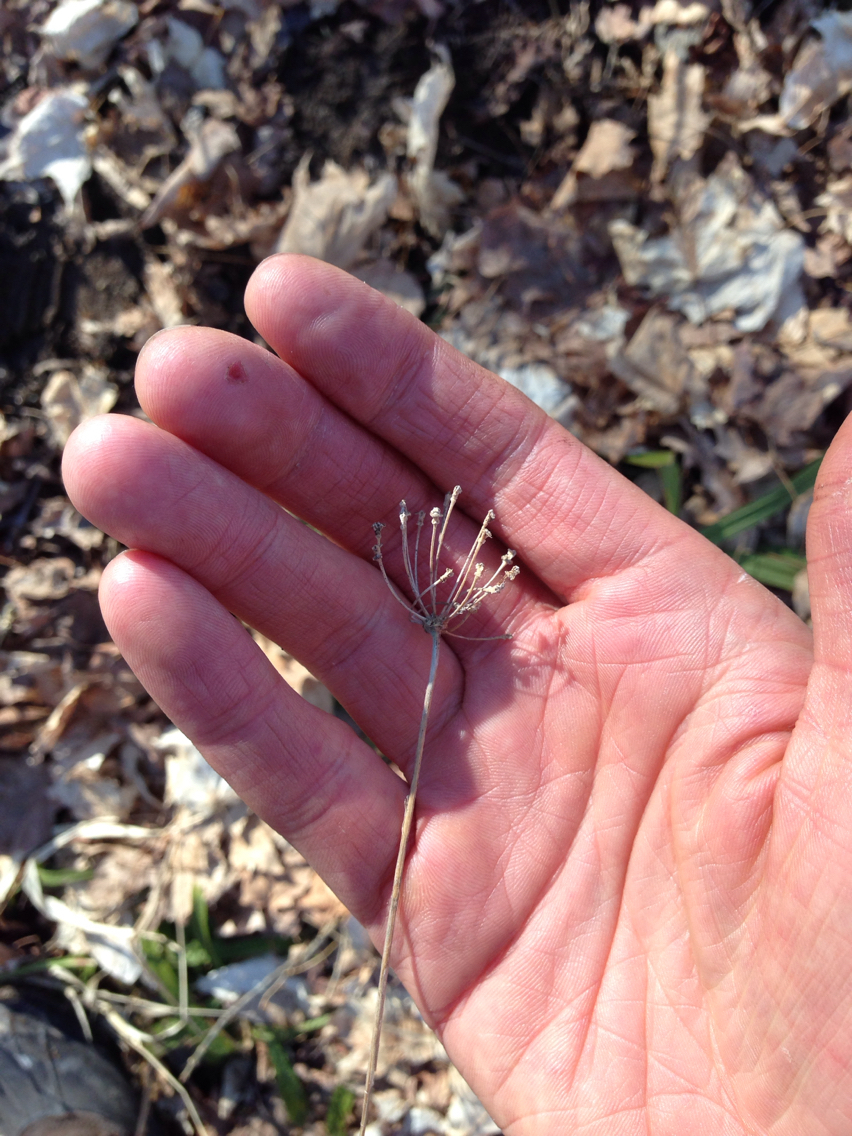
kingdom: Plantae
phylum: Tracheophyta
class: Liliopsida
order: Asparagales
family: Amaryllidaceae
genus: Allium
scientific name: Allium tricoccum
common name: Ramp
